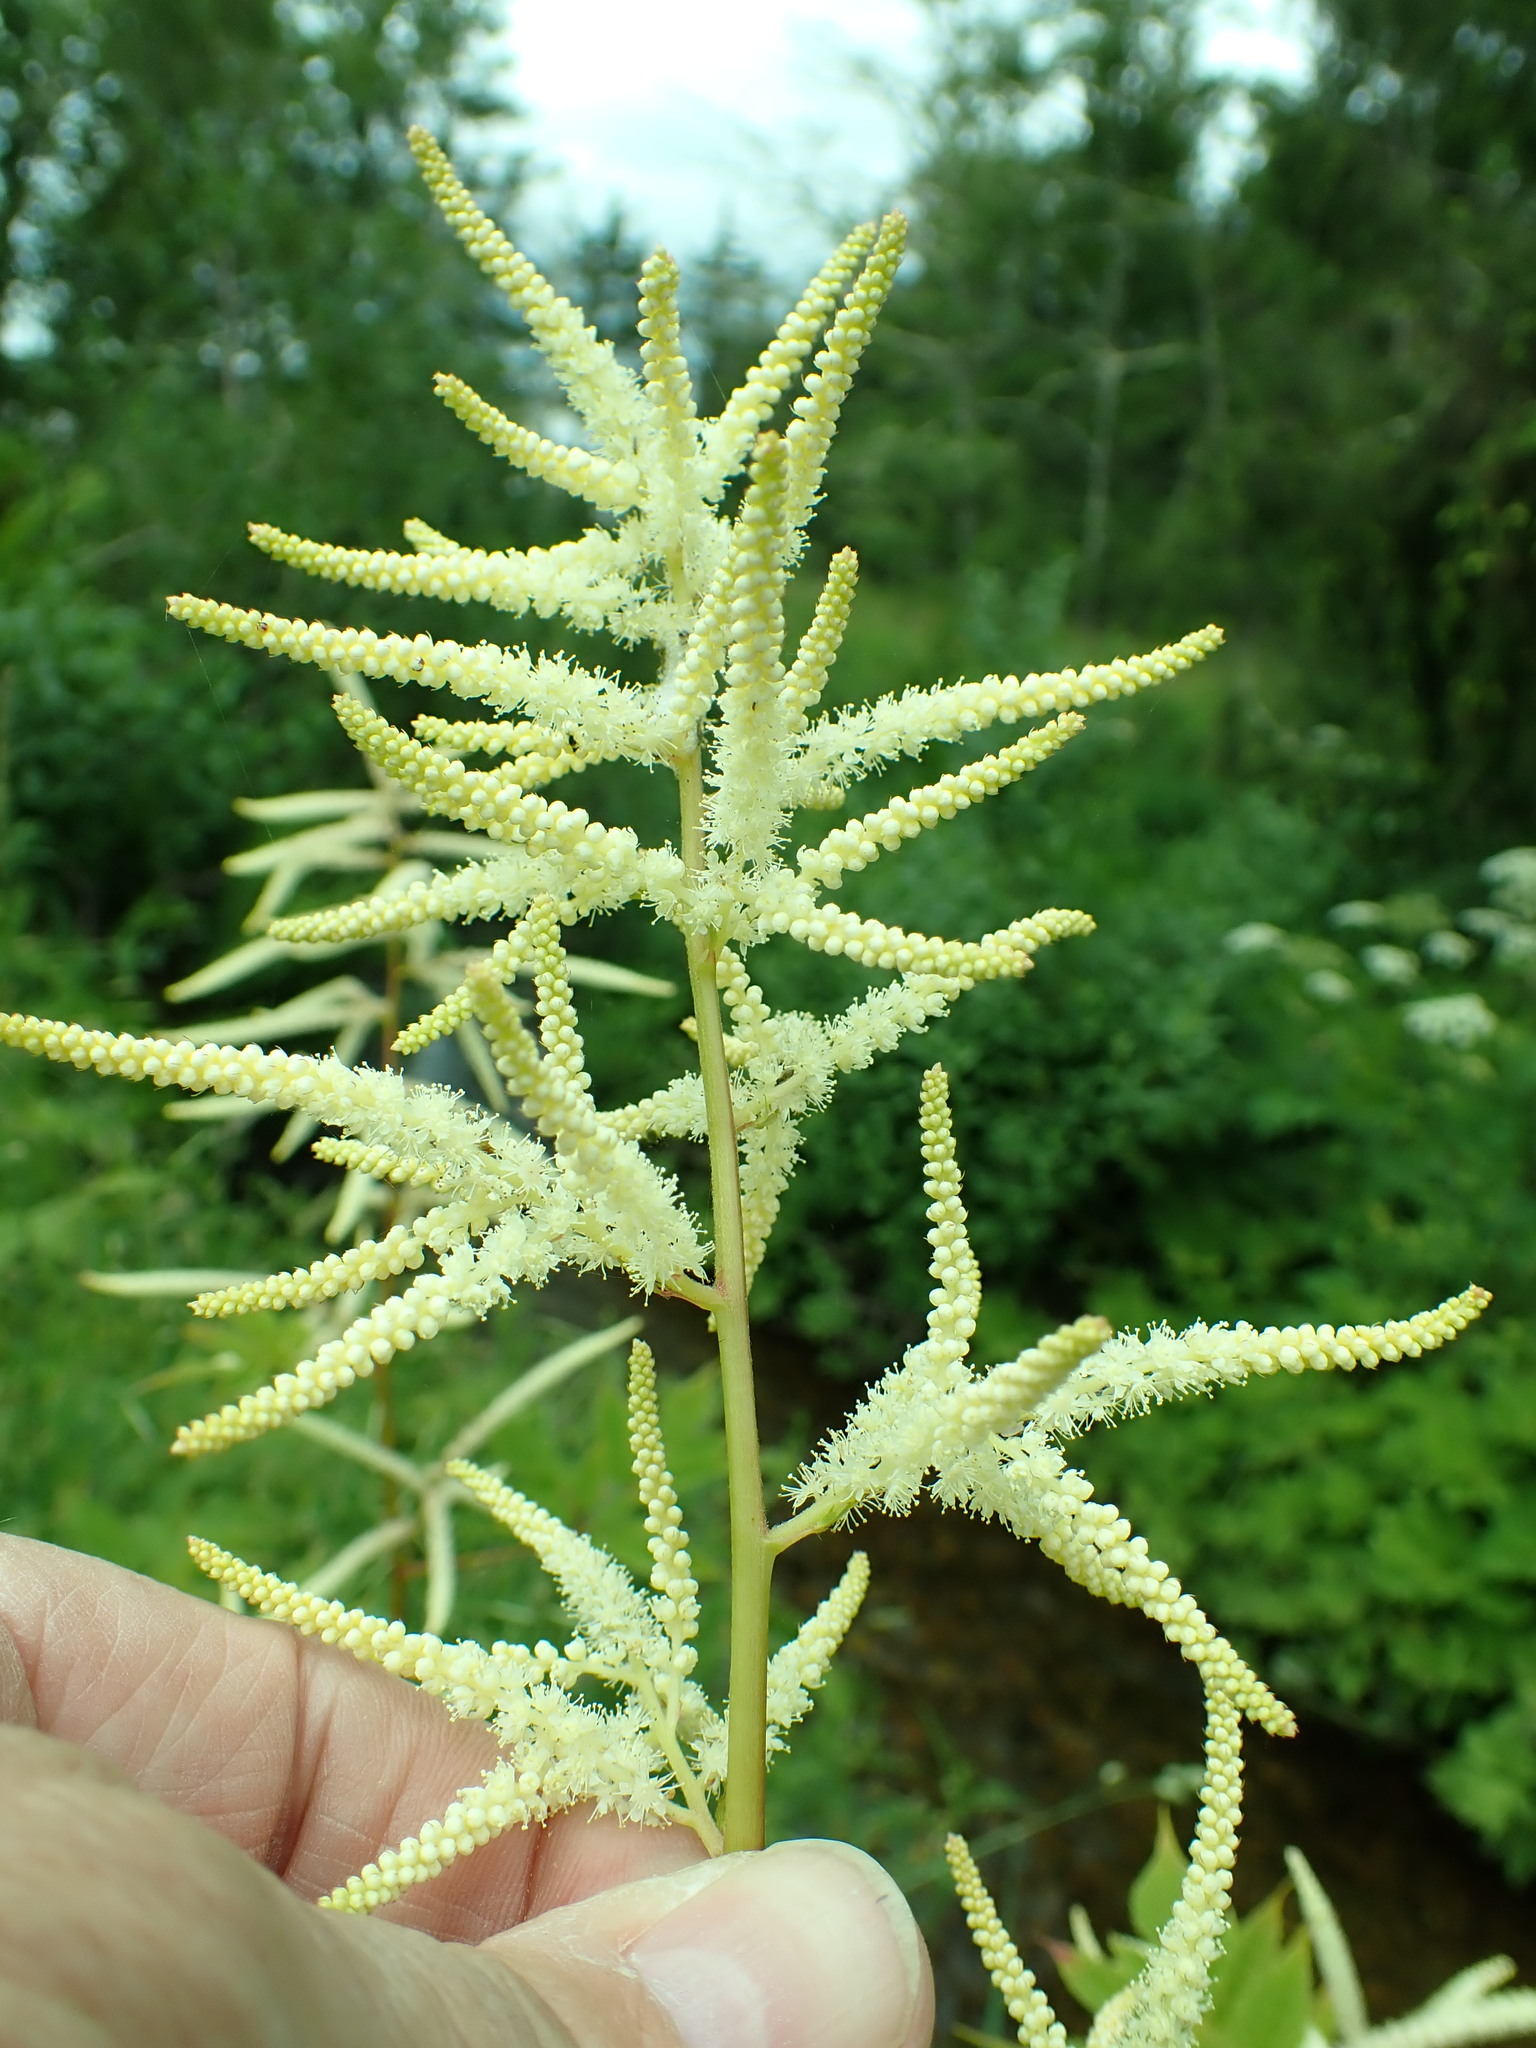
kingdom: Plantae
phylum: Tracheophyta
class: Magnoliopsida
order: Rosales
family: Rosaceae
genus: Aruncus
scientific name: Aruncus dioicus
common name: Buck's-beard
